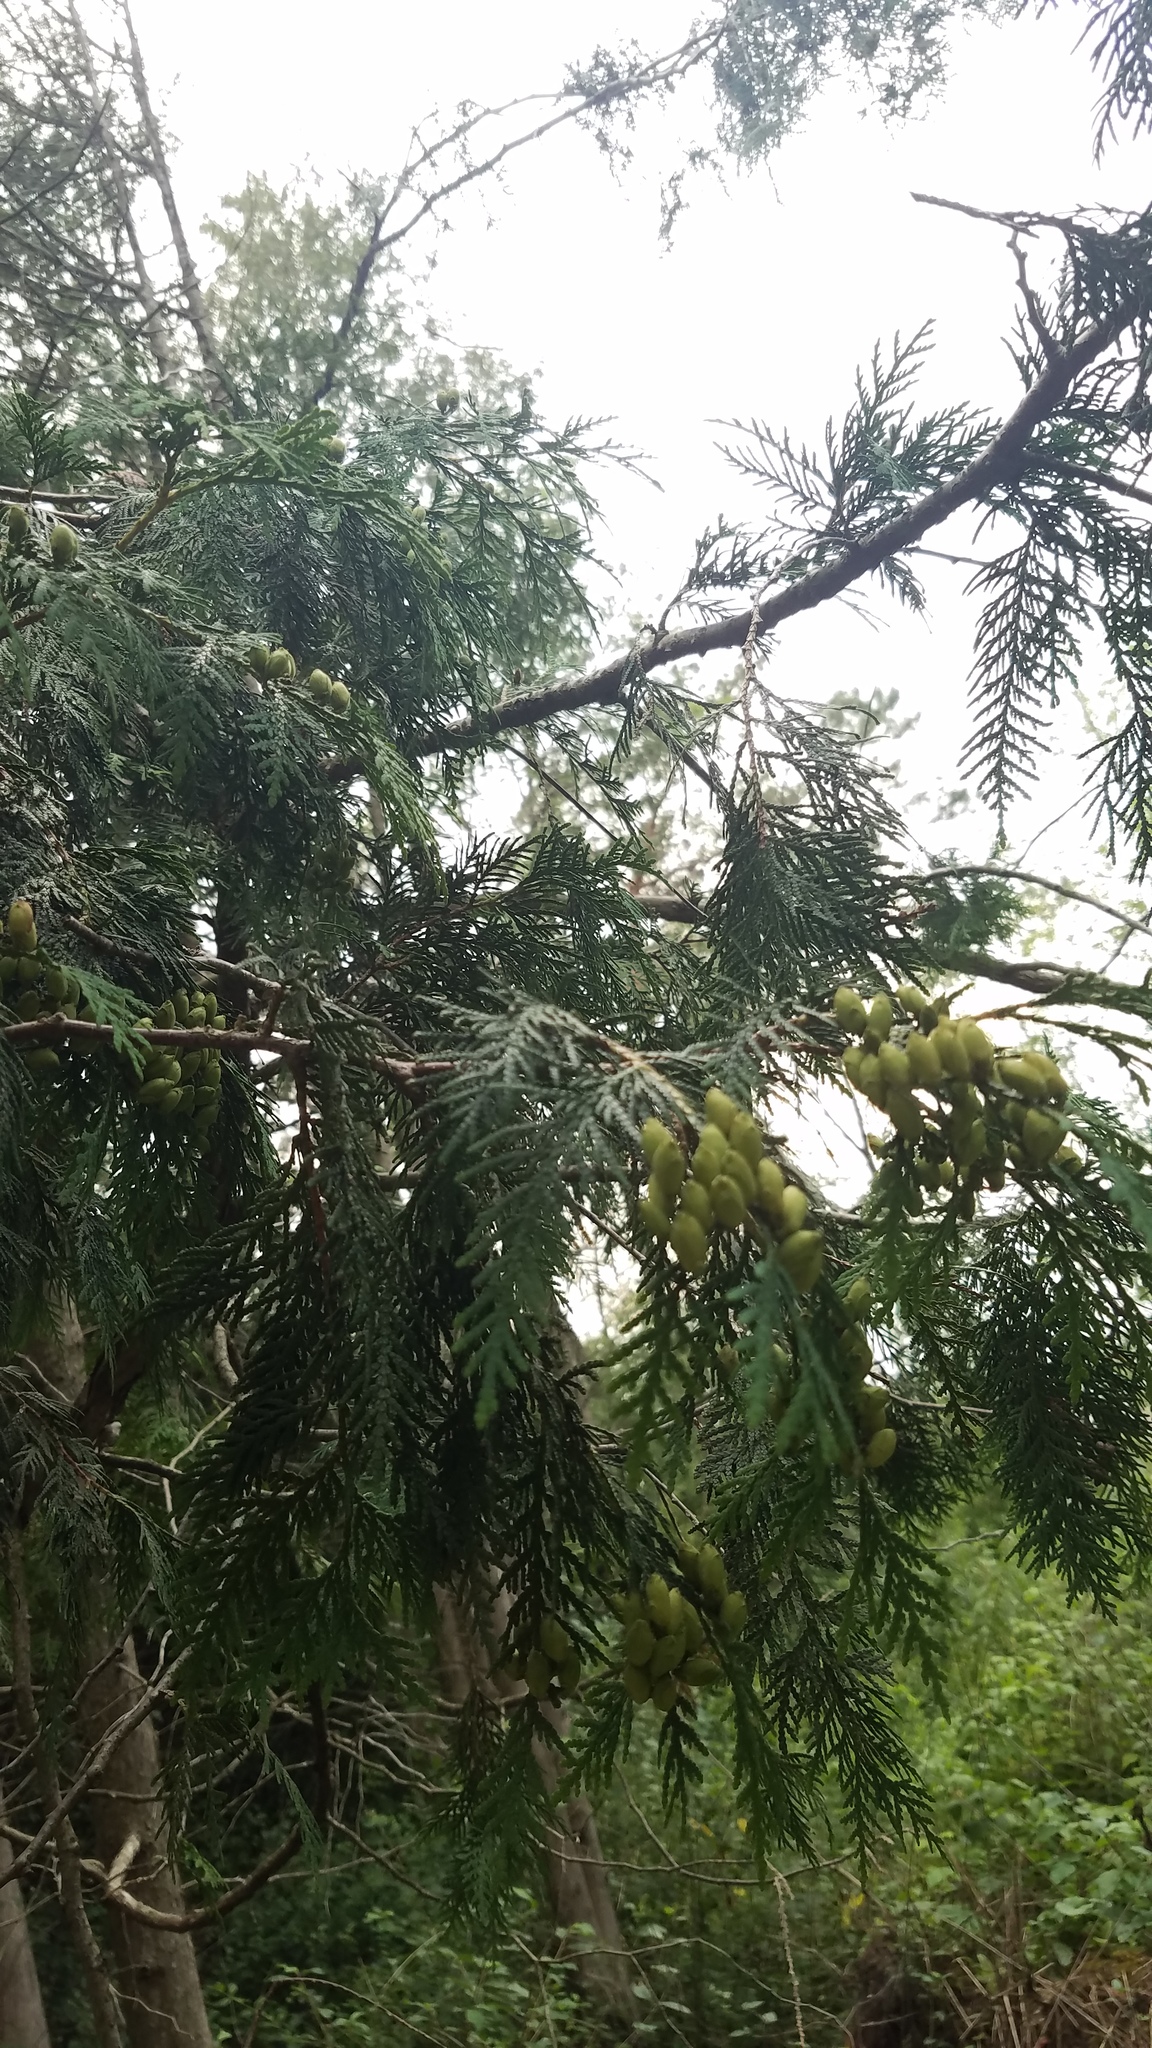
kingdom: Plantae
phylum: Tracheophyta
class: Pinopsida
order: Pinales
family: Cupressaceae
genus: Thuja
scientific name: Thuja occidentalis
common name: Northern white-cedar
